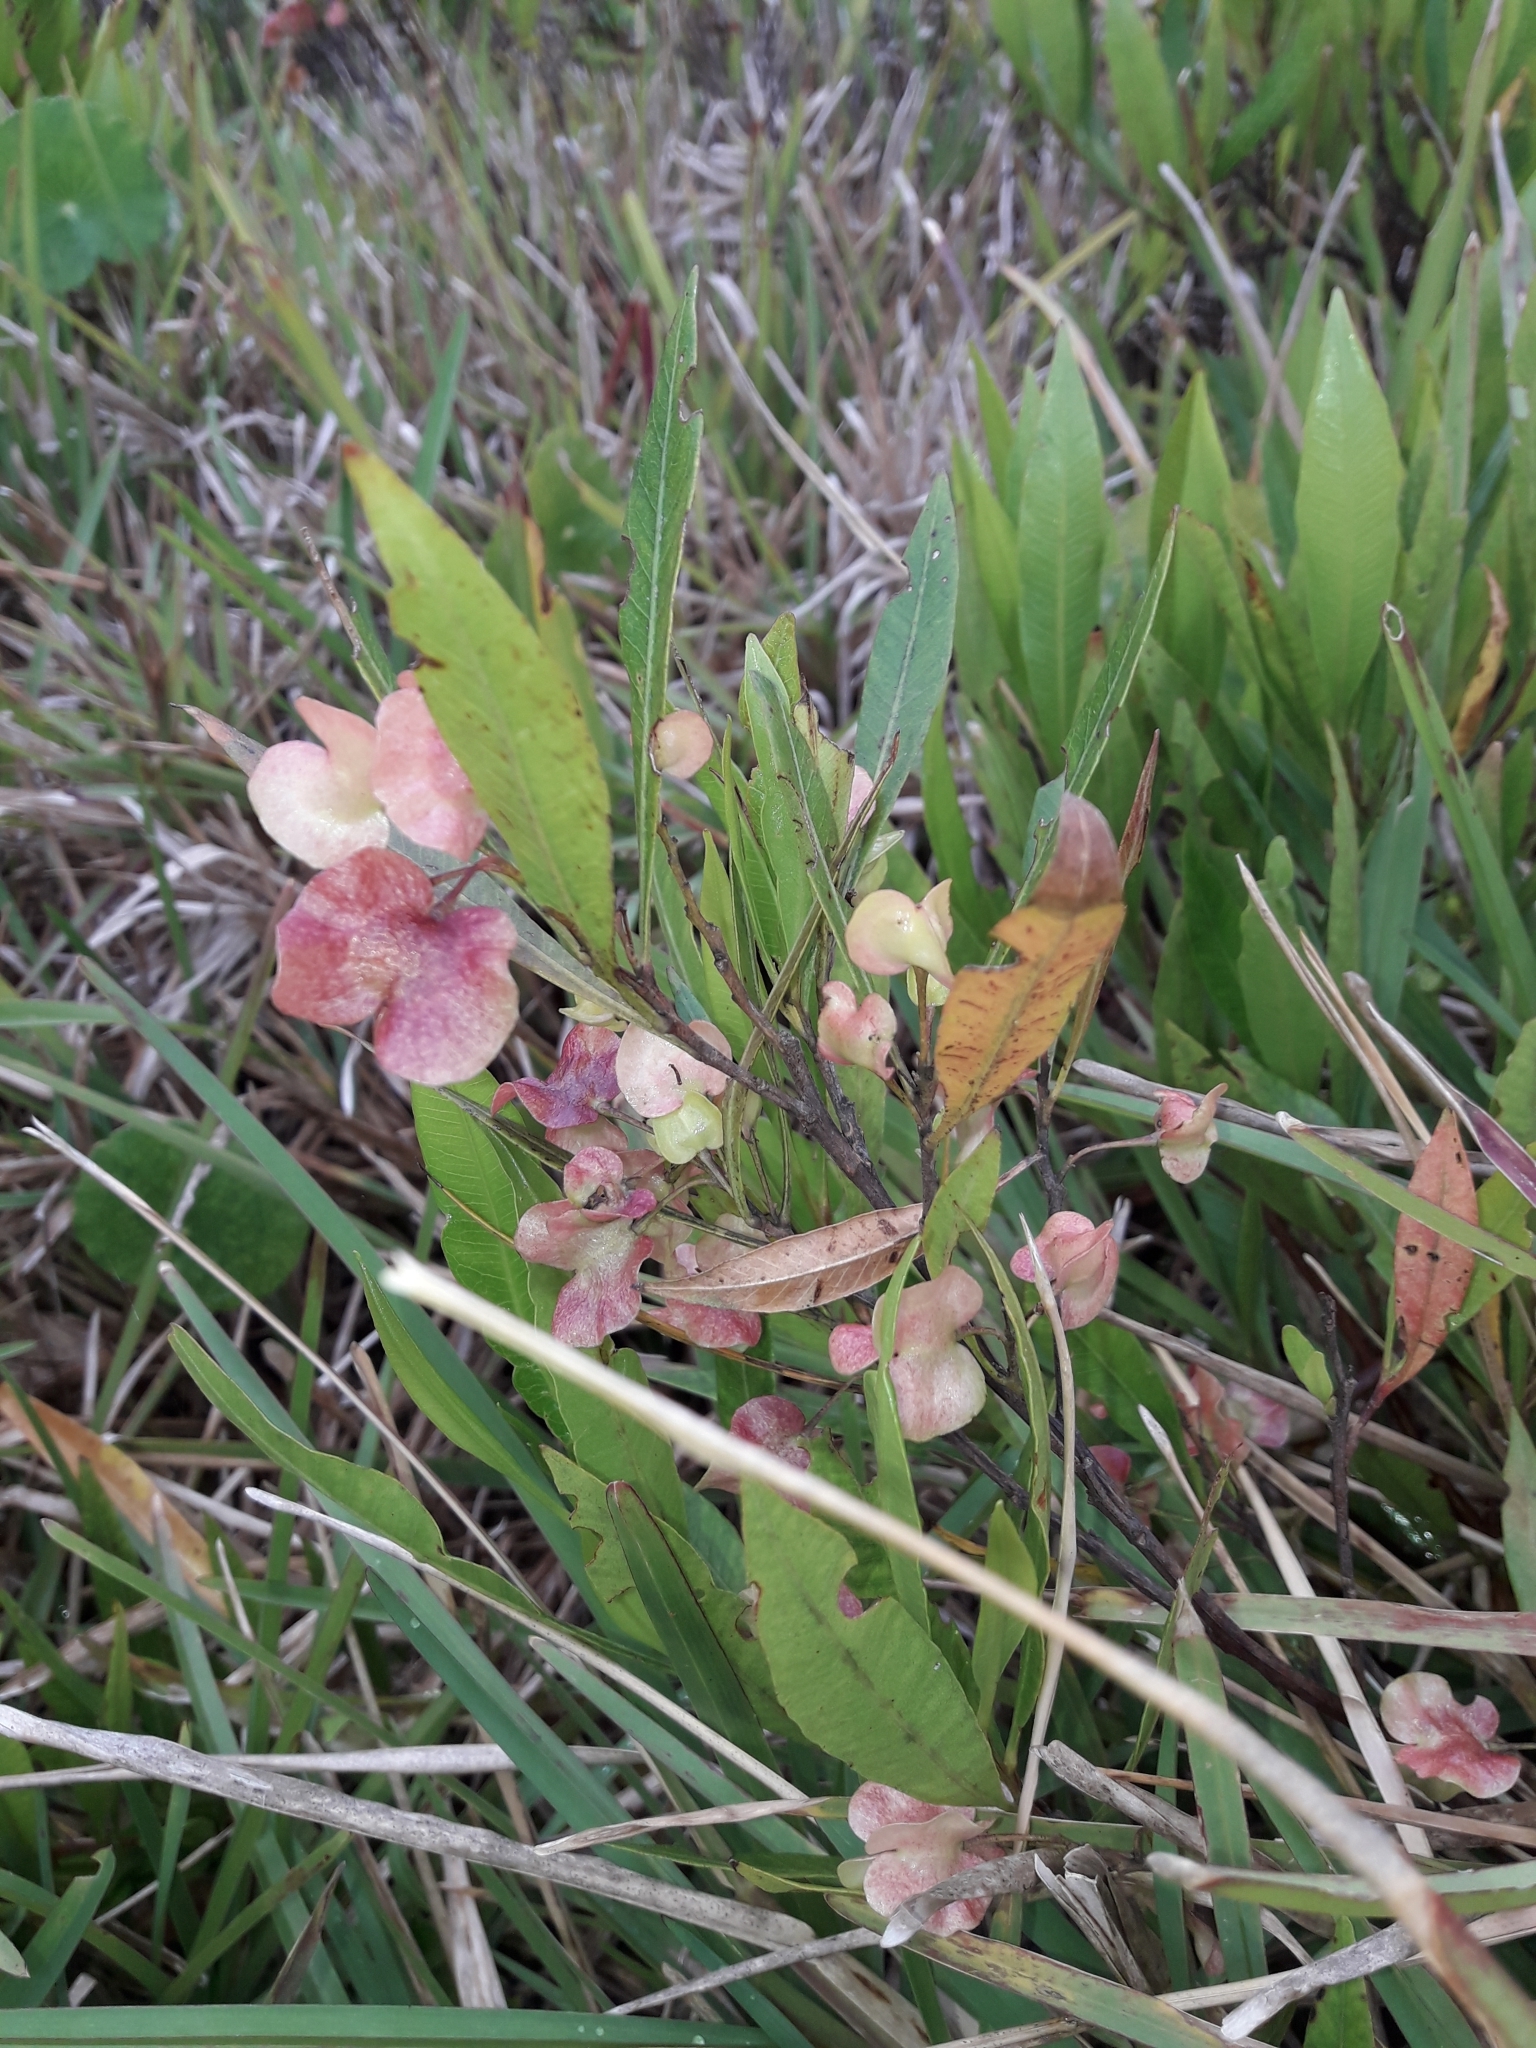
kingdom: Plantae
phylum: Tracheophyta
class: Magnoliopsida
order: Sapindales
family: Sapindaceae
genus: Dodonaea
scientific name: Dodonaea viscosa
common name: Hopbush
